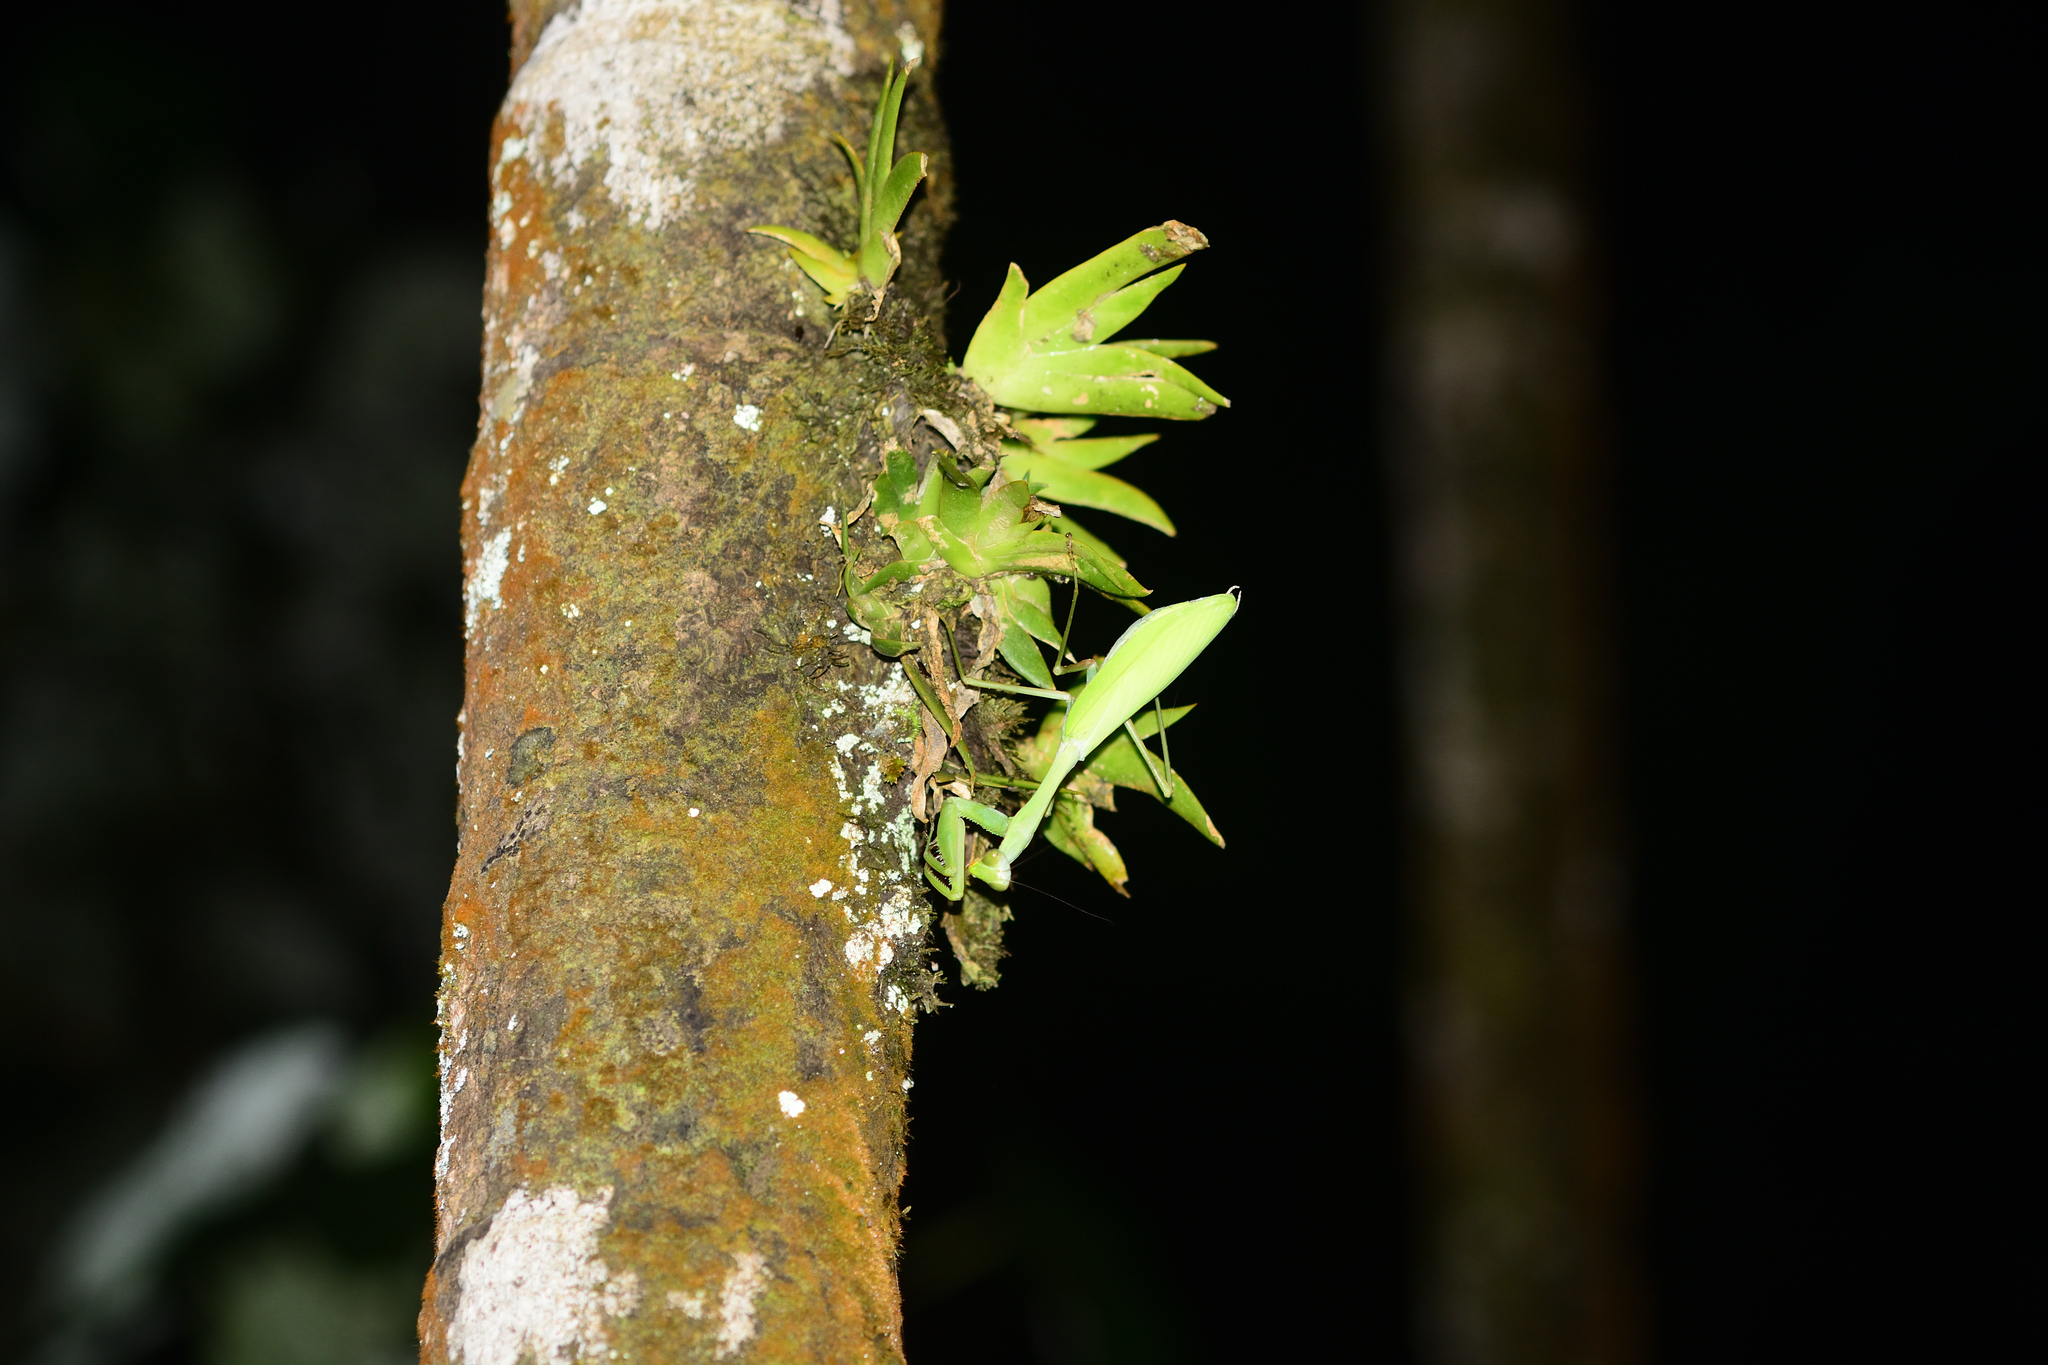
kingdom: Animalia
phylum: Arthropoda
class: Insecta
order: Mantodea
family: Mantidae
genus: Hierodula
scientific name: Hierodula membranacea
